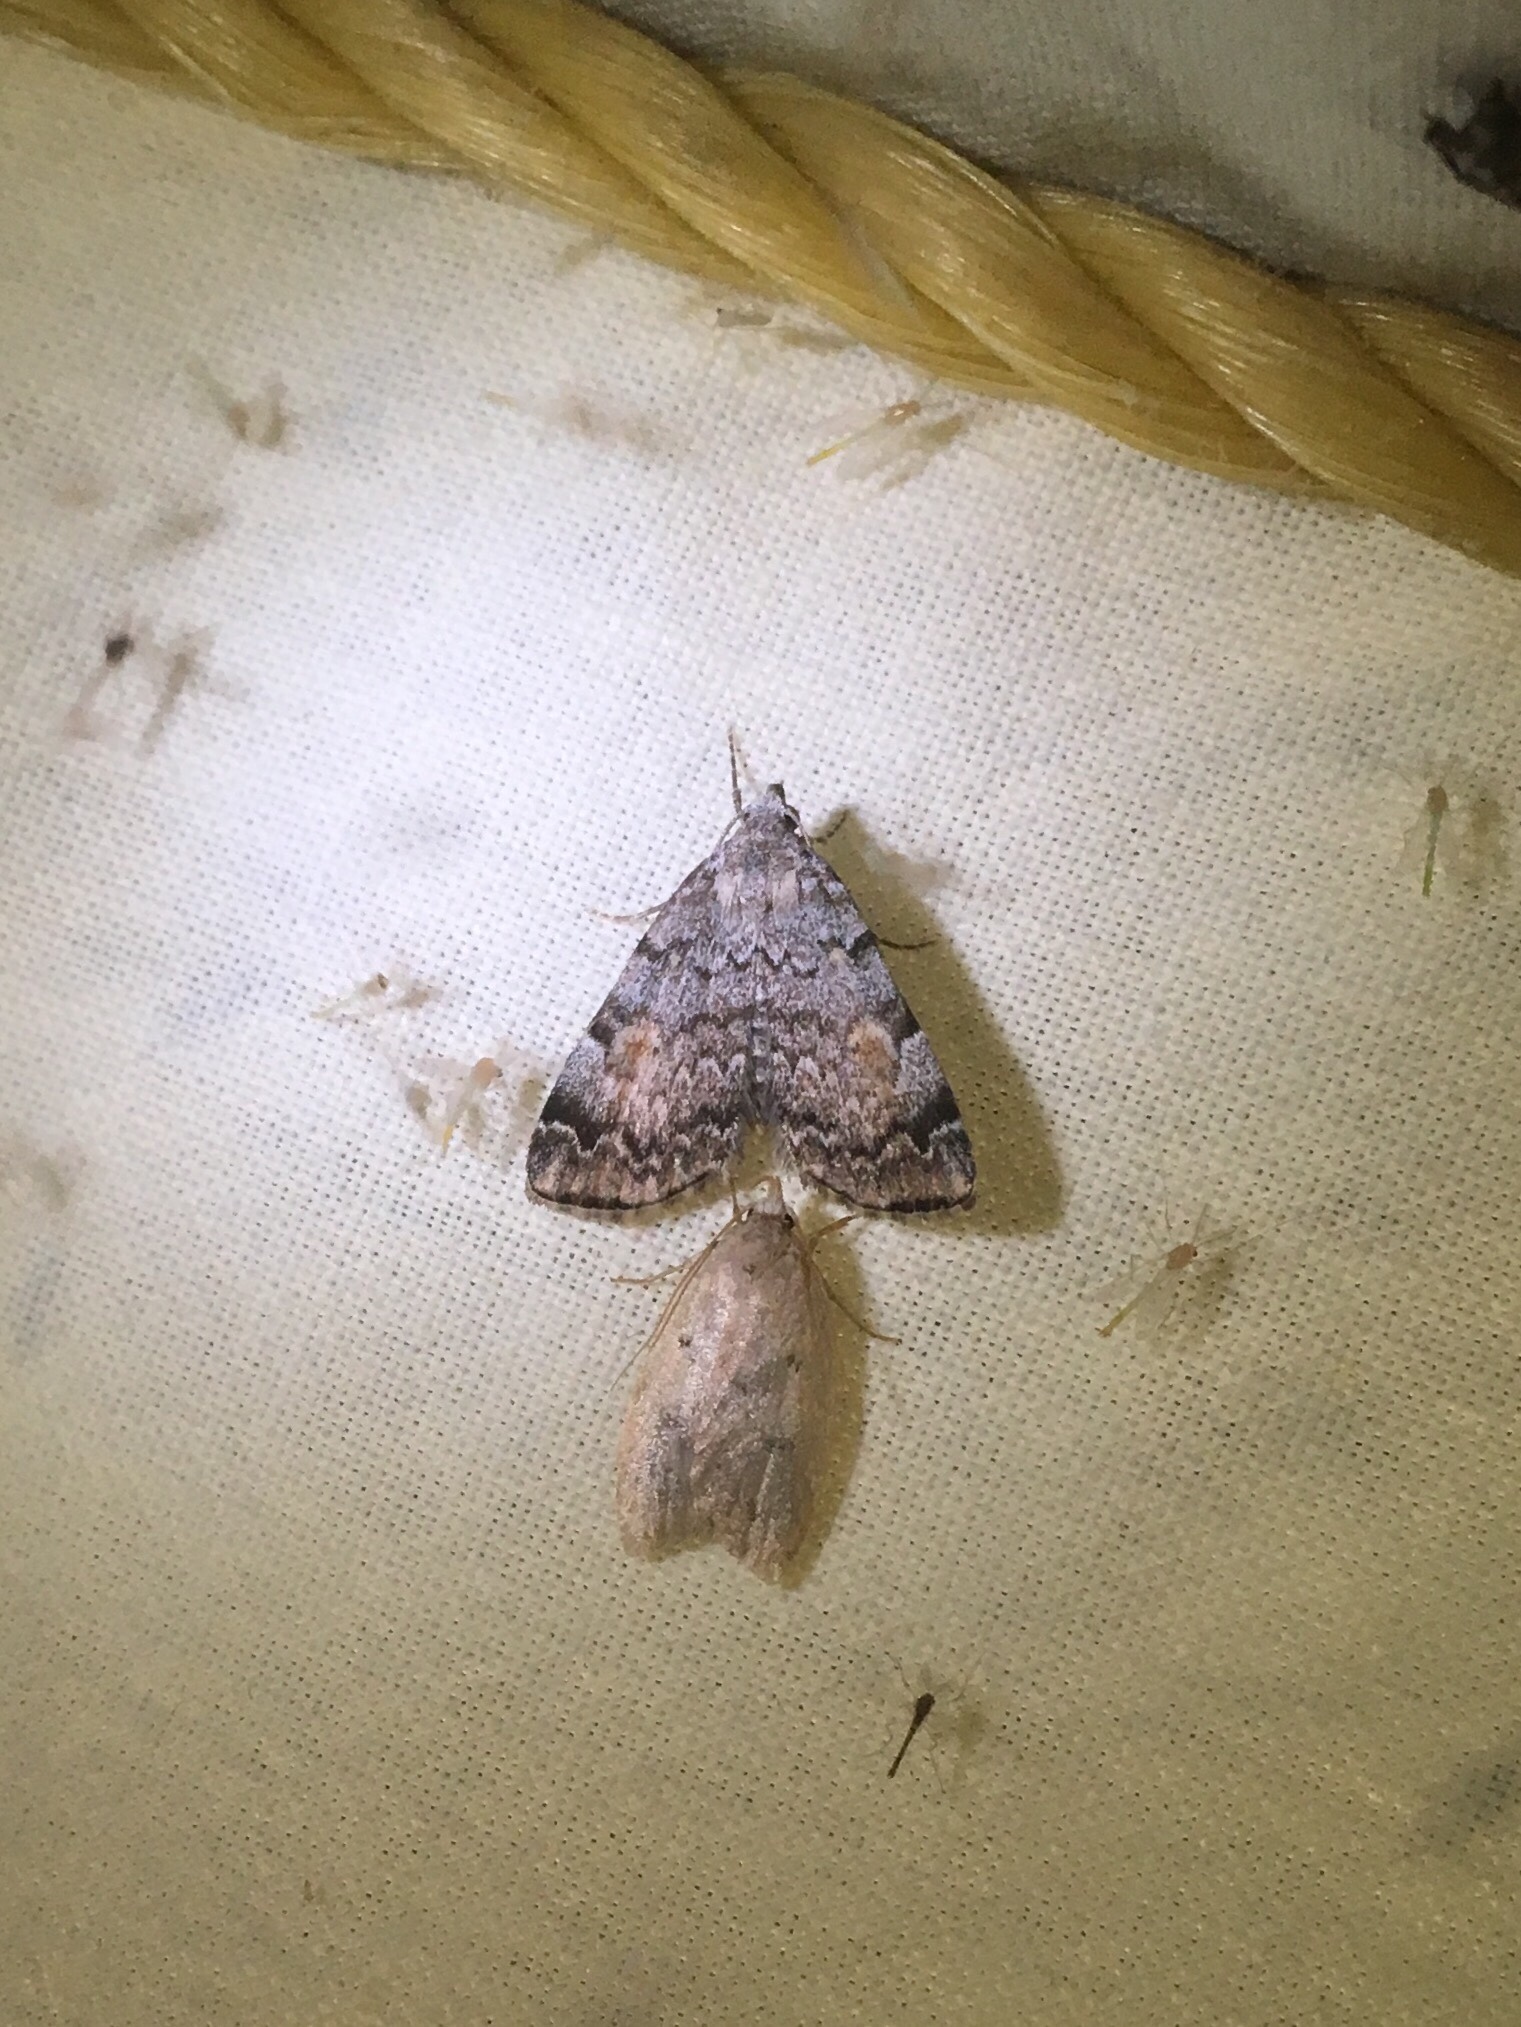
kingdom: Animalia
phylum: Arthropoda
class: Insecta
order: Lepidoptera
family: Erebidae
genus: Idia
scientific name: Idia americalis
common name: American idia moth
